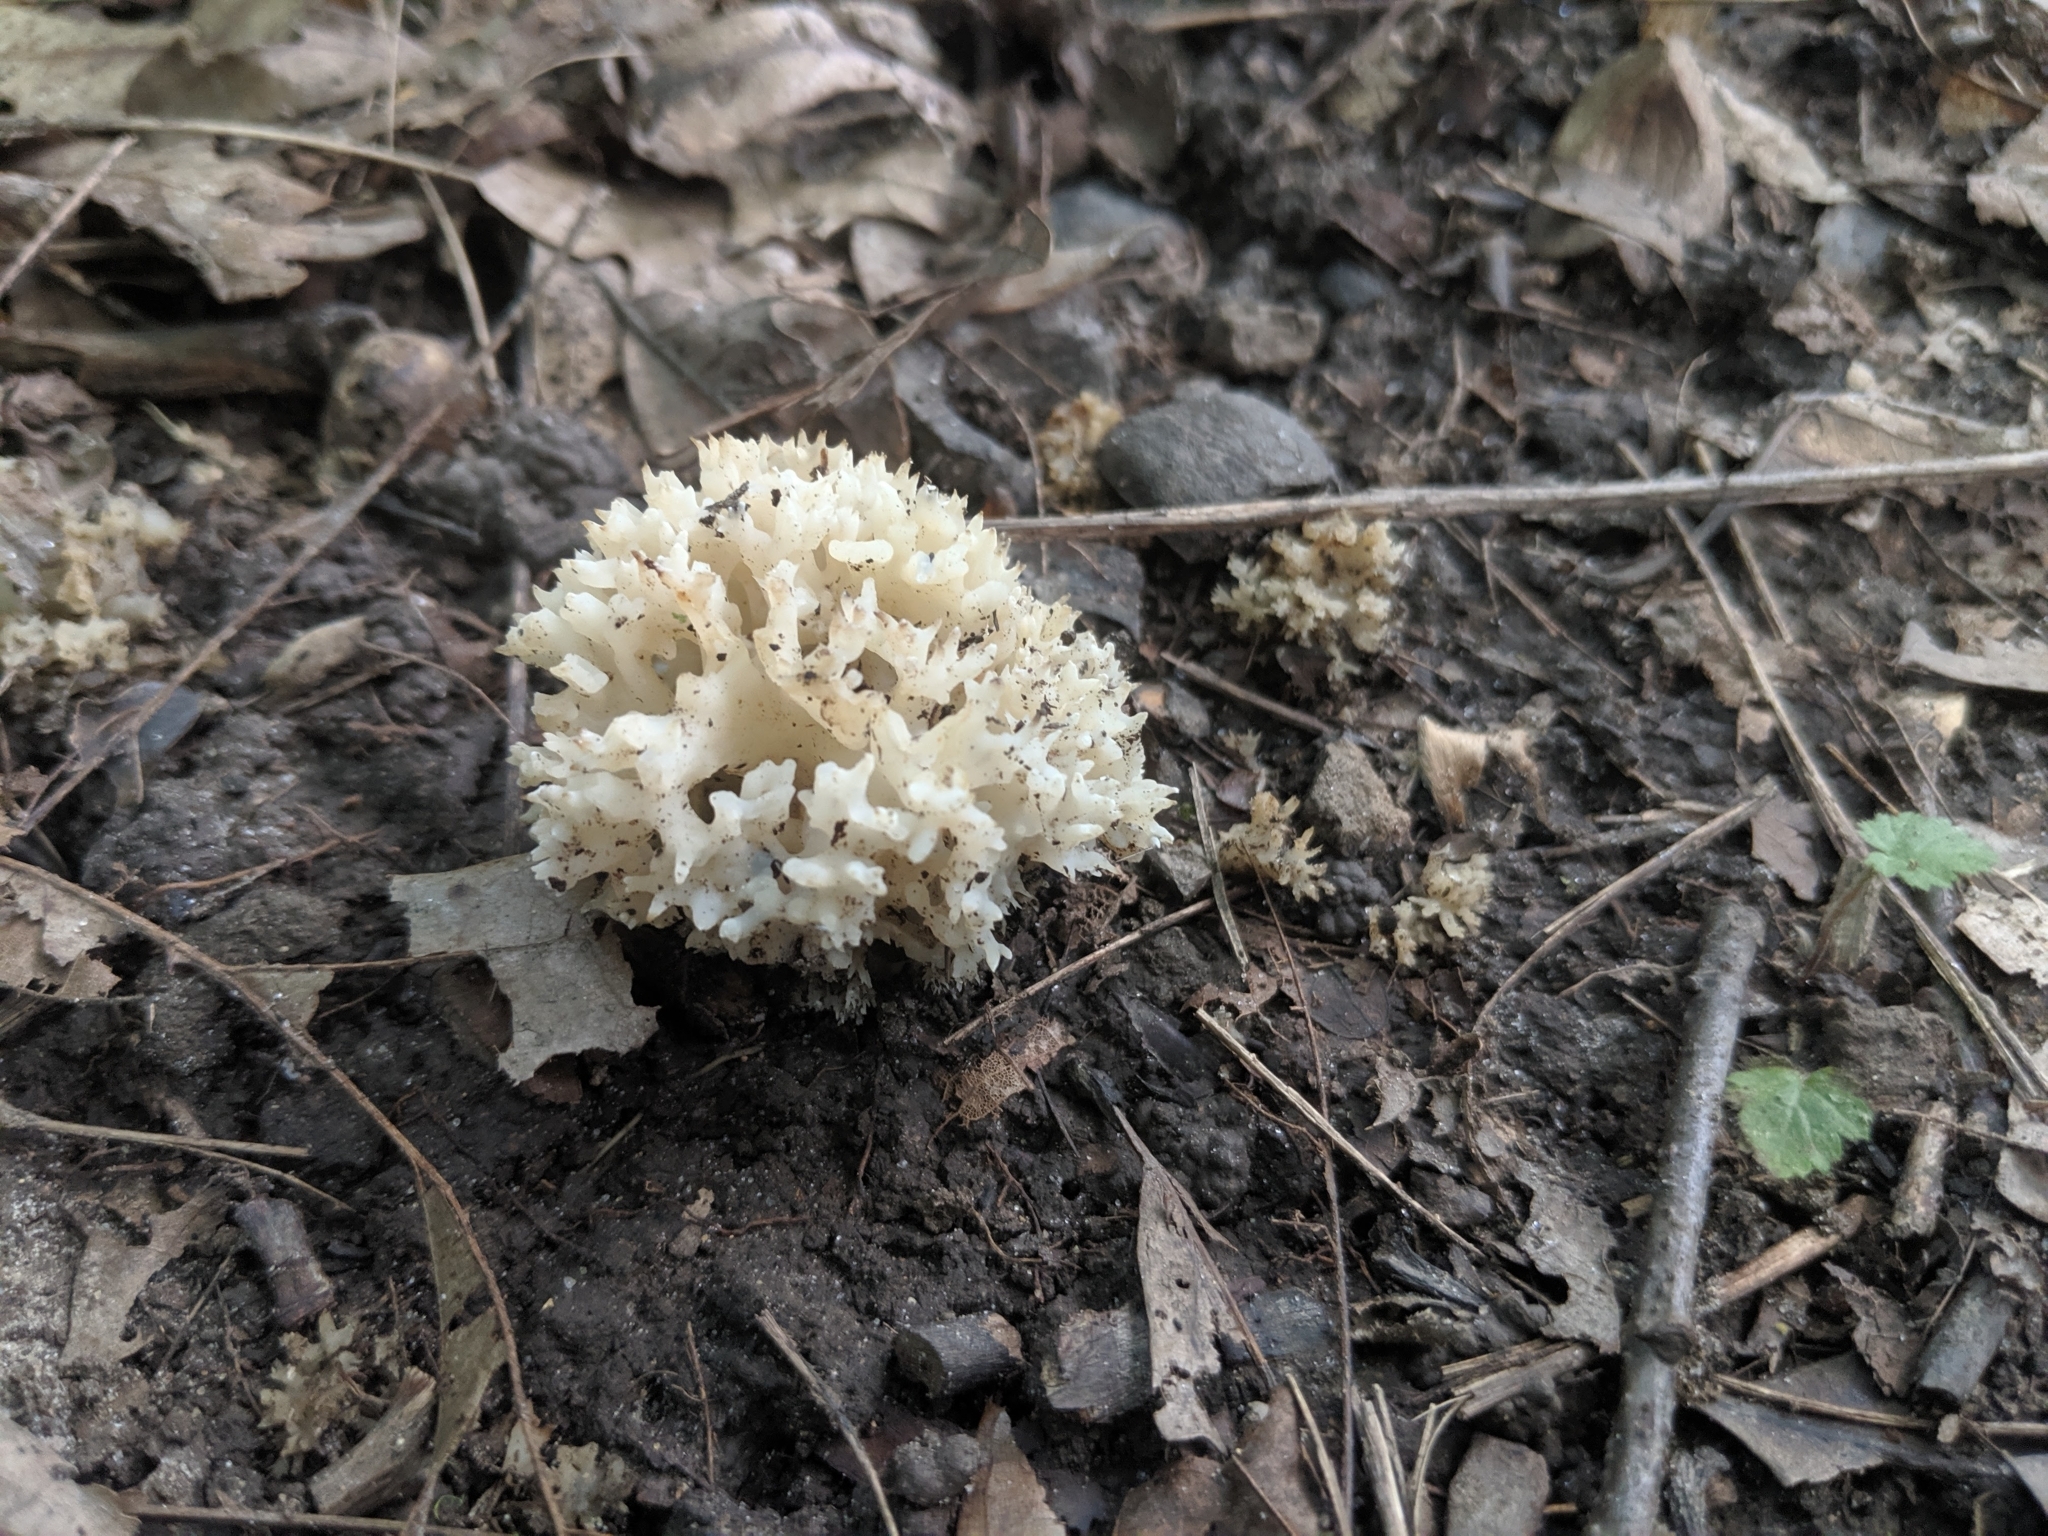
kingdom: Fungi
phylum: Basidiomycota
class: Agaricomycetes
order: Sebacinales
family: Sebacinaceae
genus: Sebacina
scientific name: Sebacina sparassoidea
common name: White coral jelly fungus
